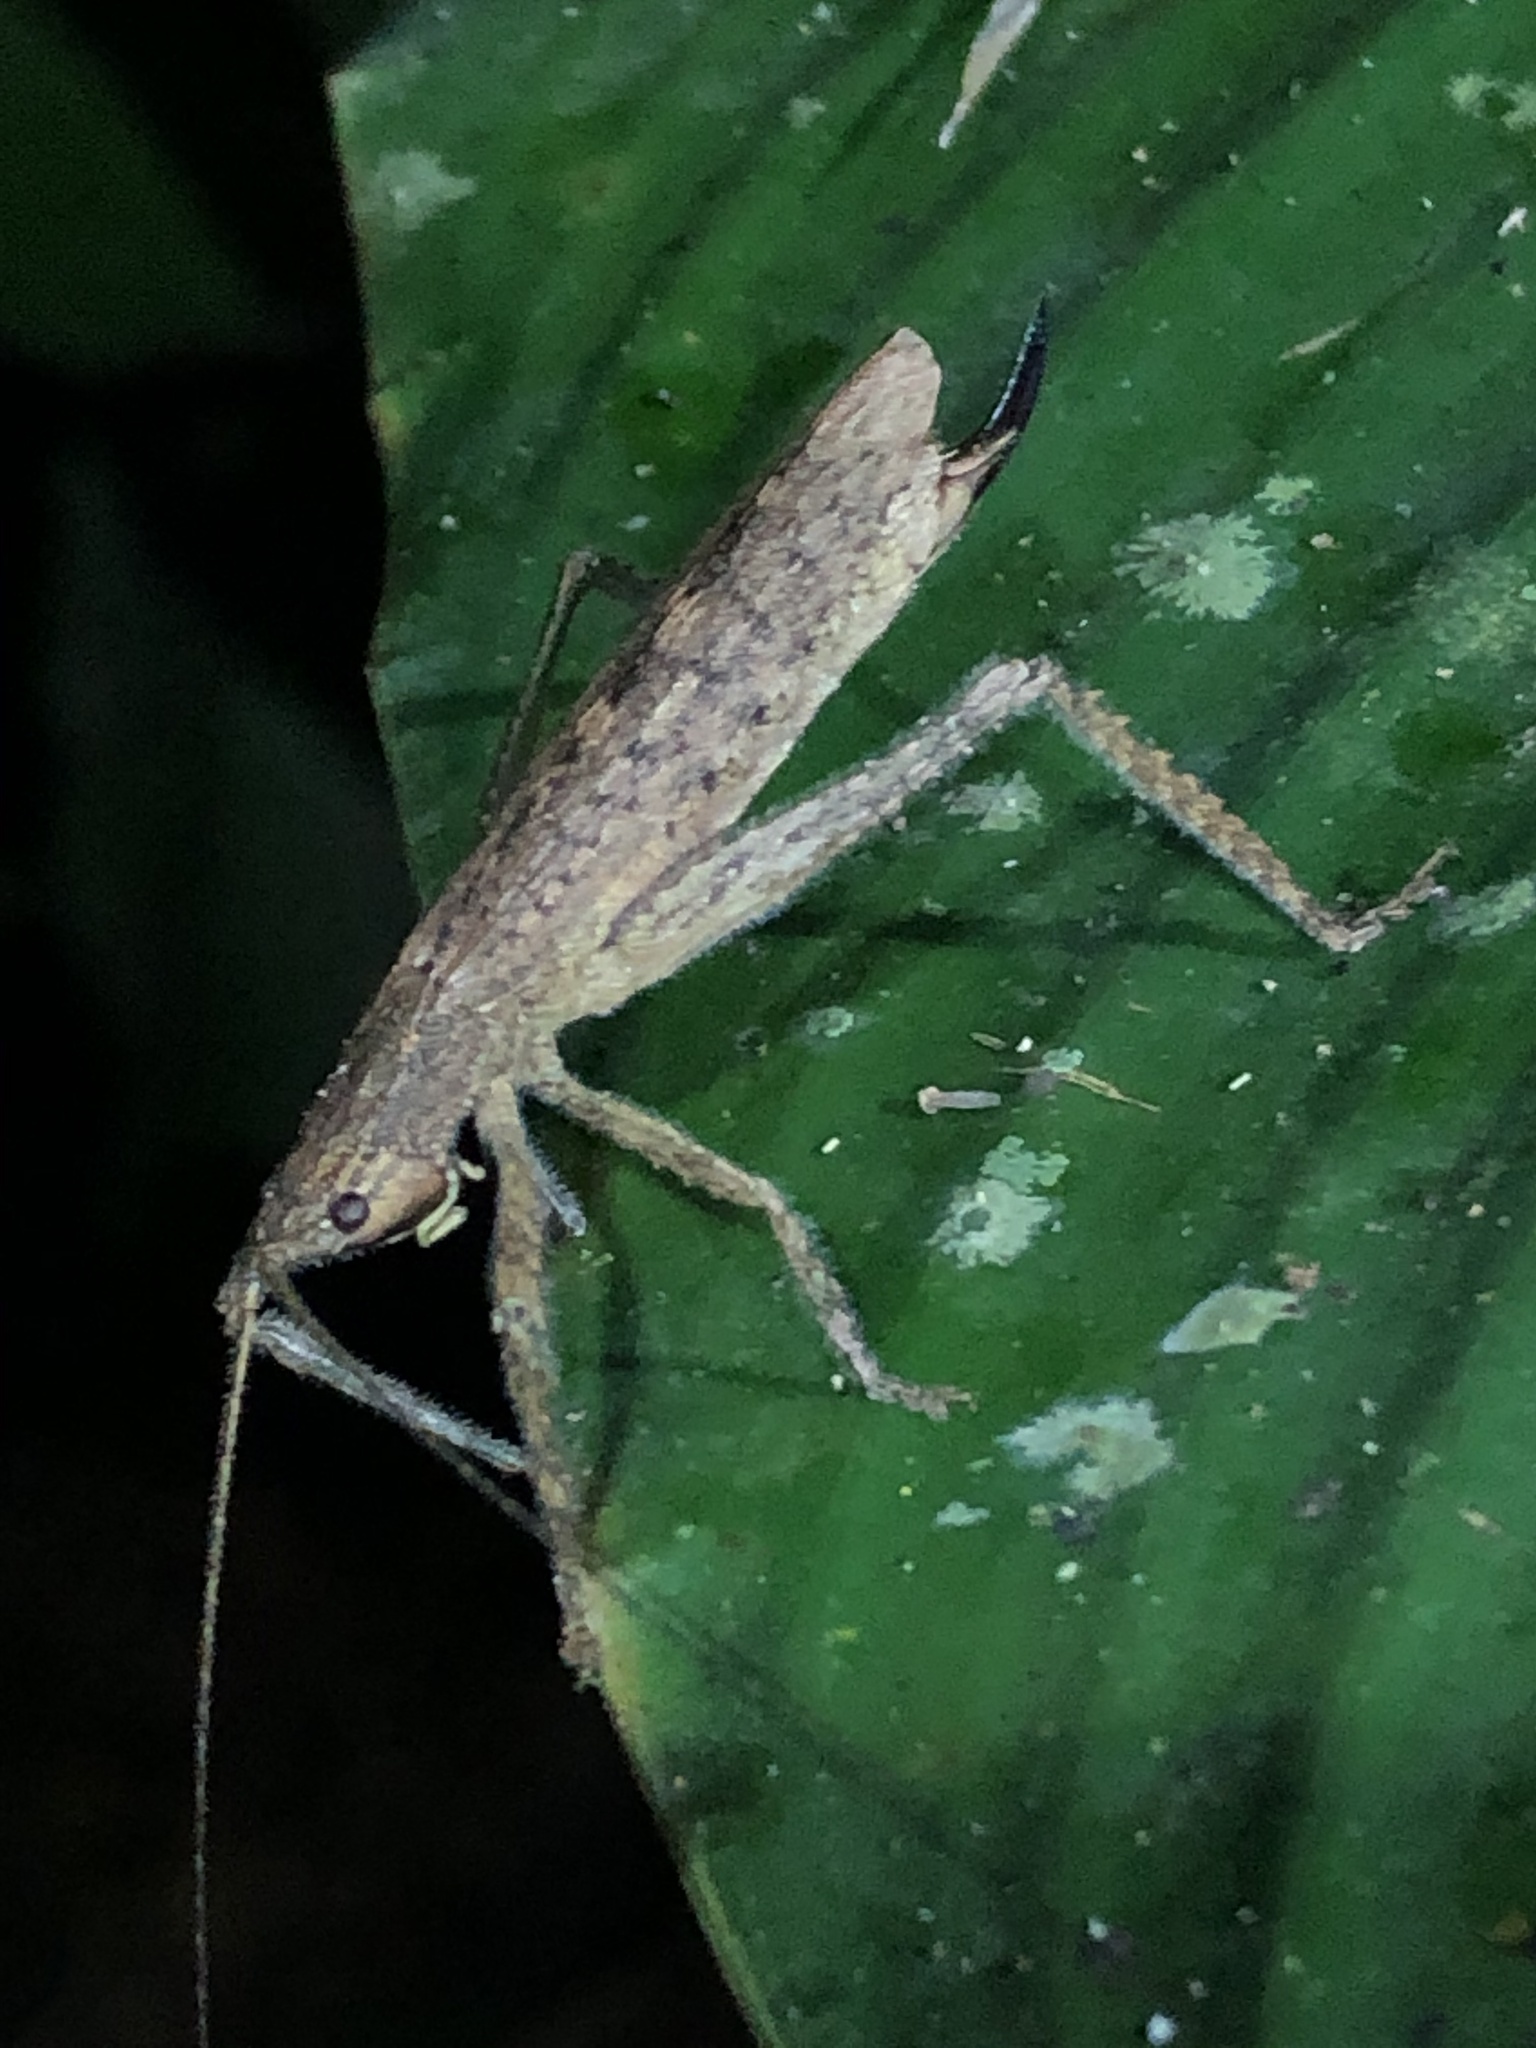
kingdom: Animalia
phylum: Arthropoda
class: Insecta
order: Orthoptera
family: Tettigoniidae
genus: Stenoschema
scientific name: Stenoschema angustipenne
